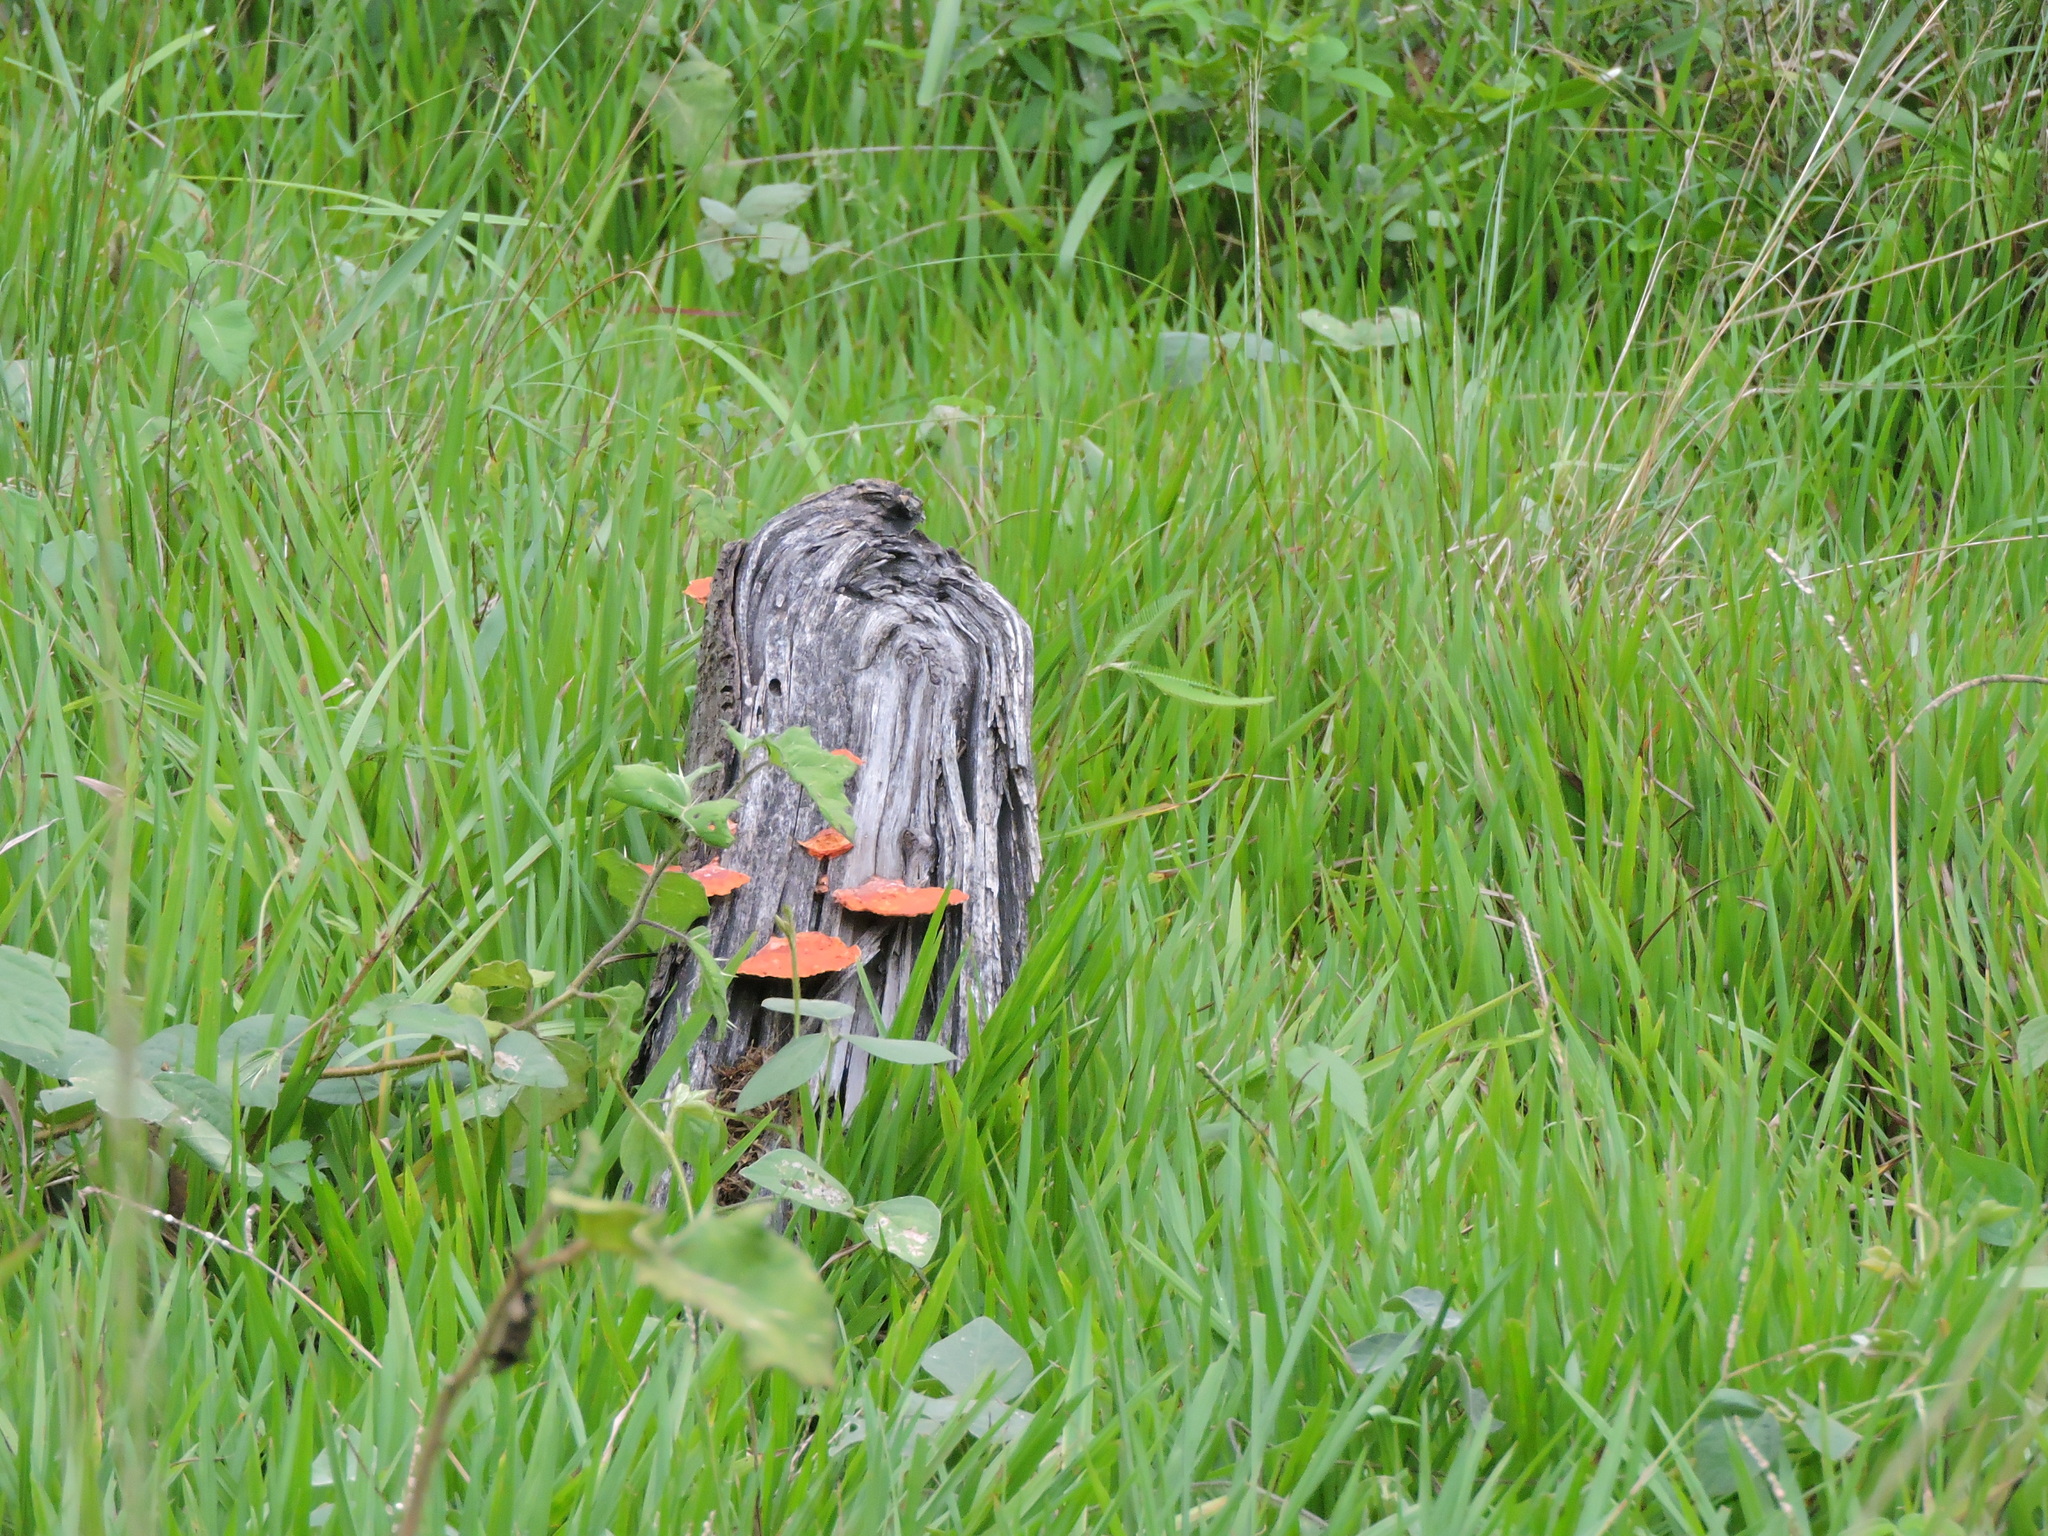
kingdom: Fungi
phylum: Basidiomycota
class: Agaricomycetes
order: Polyporales
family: Polyporaceae
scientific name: Polyporaceae
